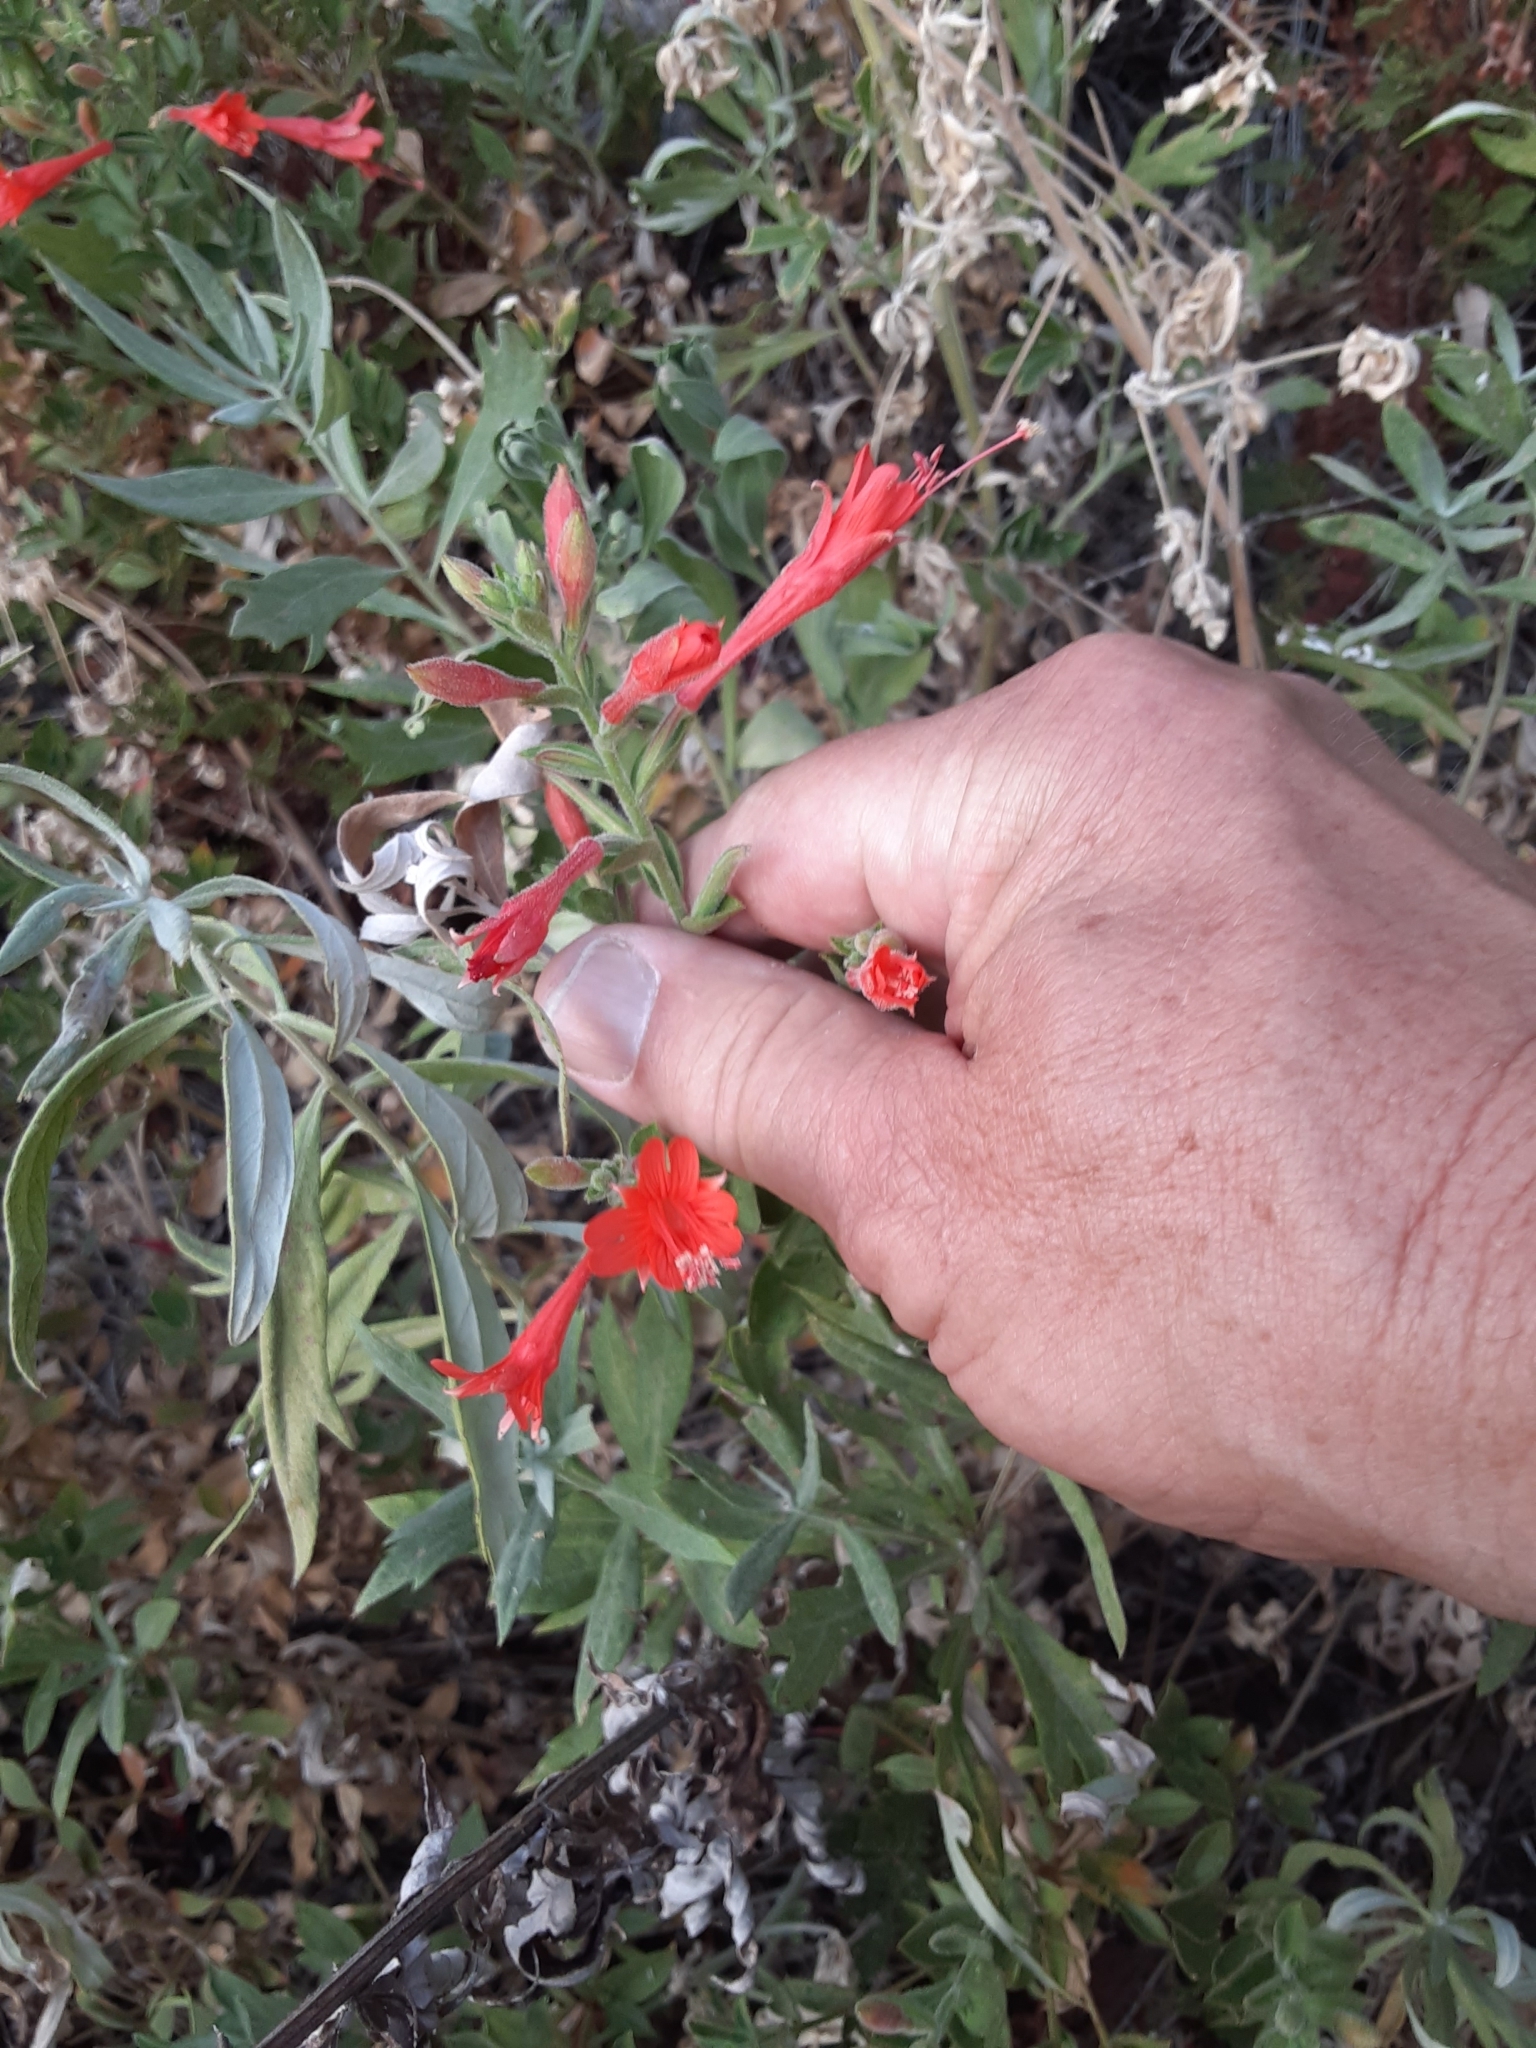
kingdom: Plantae
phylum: Tracheophyta
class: Magnoliopsida
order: Myrtales
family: Onagraceae
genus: Epilobium
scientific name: Epilobium canum
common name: California-fuchsia
